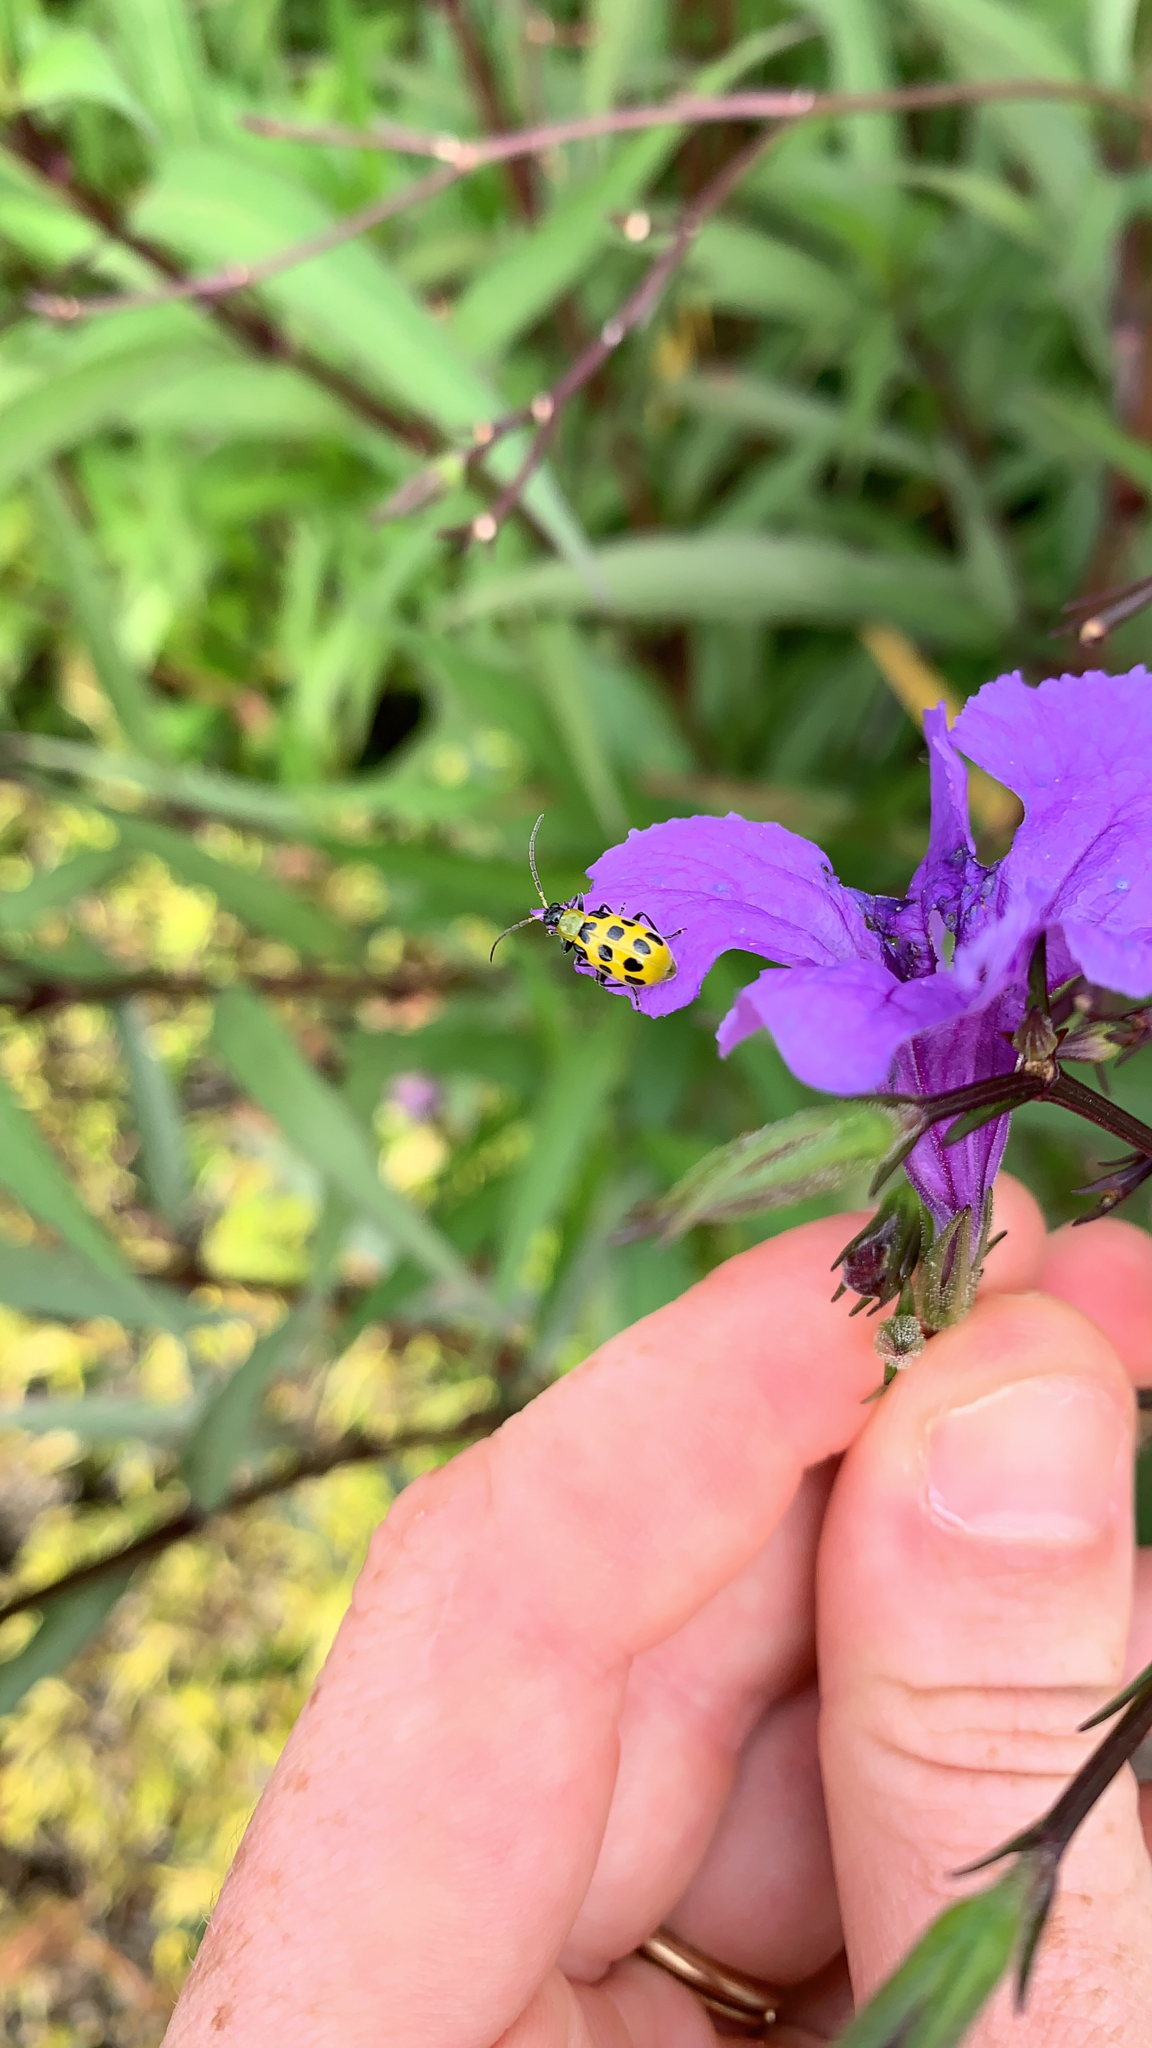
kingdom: Animalia
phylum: Arthropoda
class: Insecta
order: Coleoptera
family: Chrysomelidae
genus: Diabrotica
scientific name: Diabrotica undecimpunctata
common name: Spotted cucumber beetle
